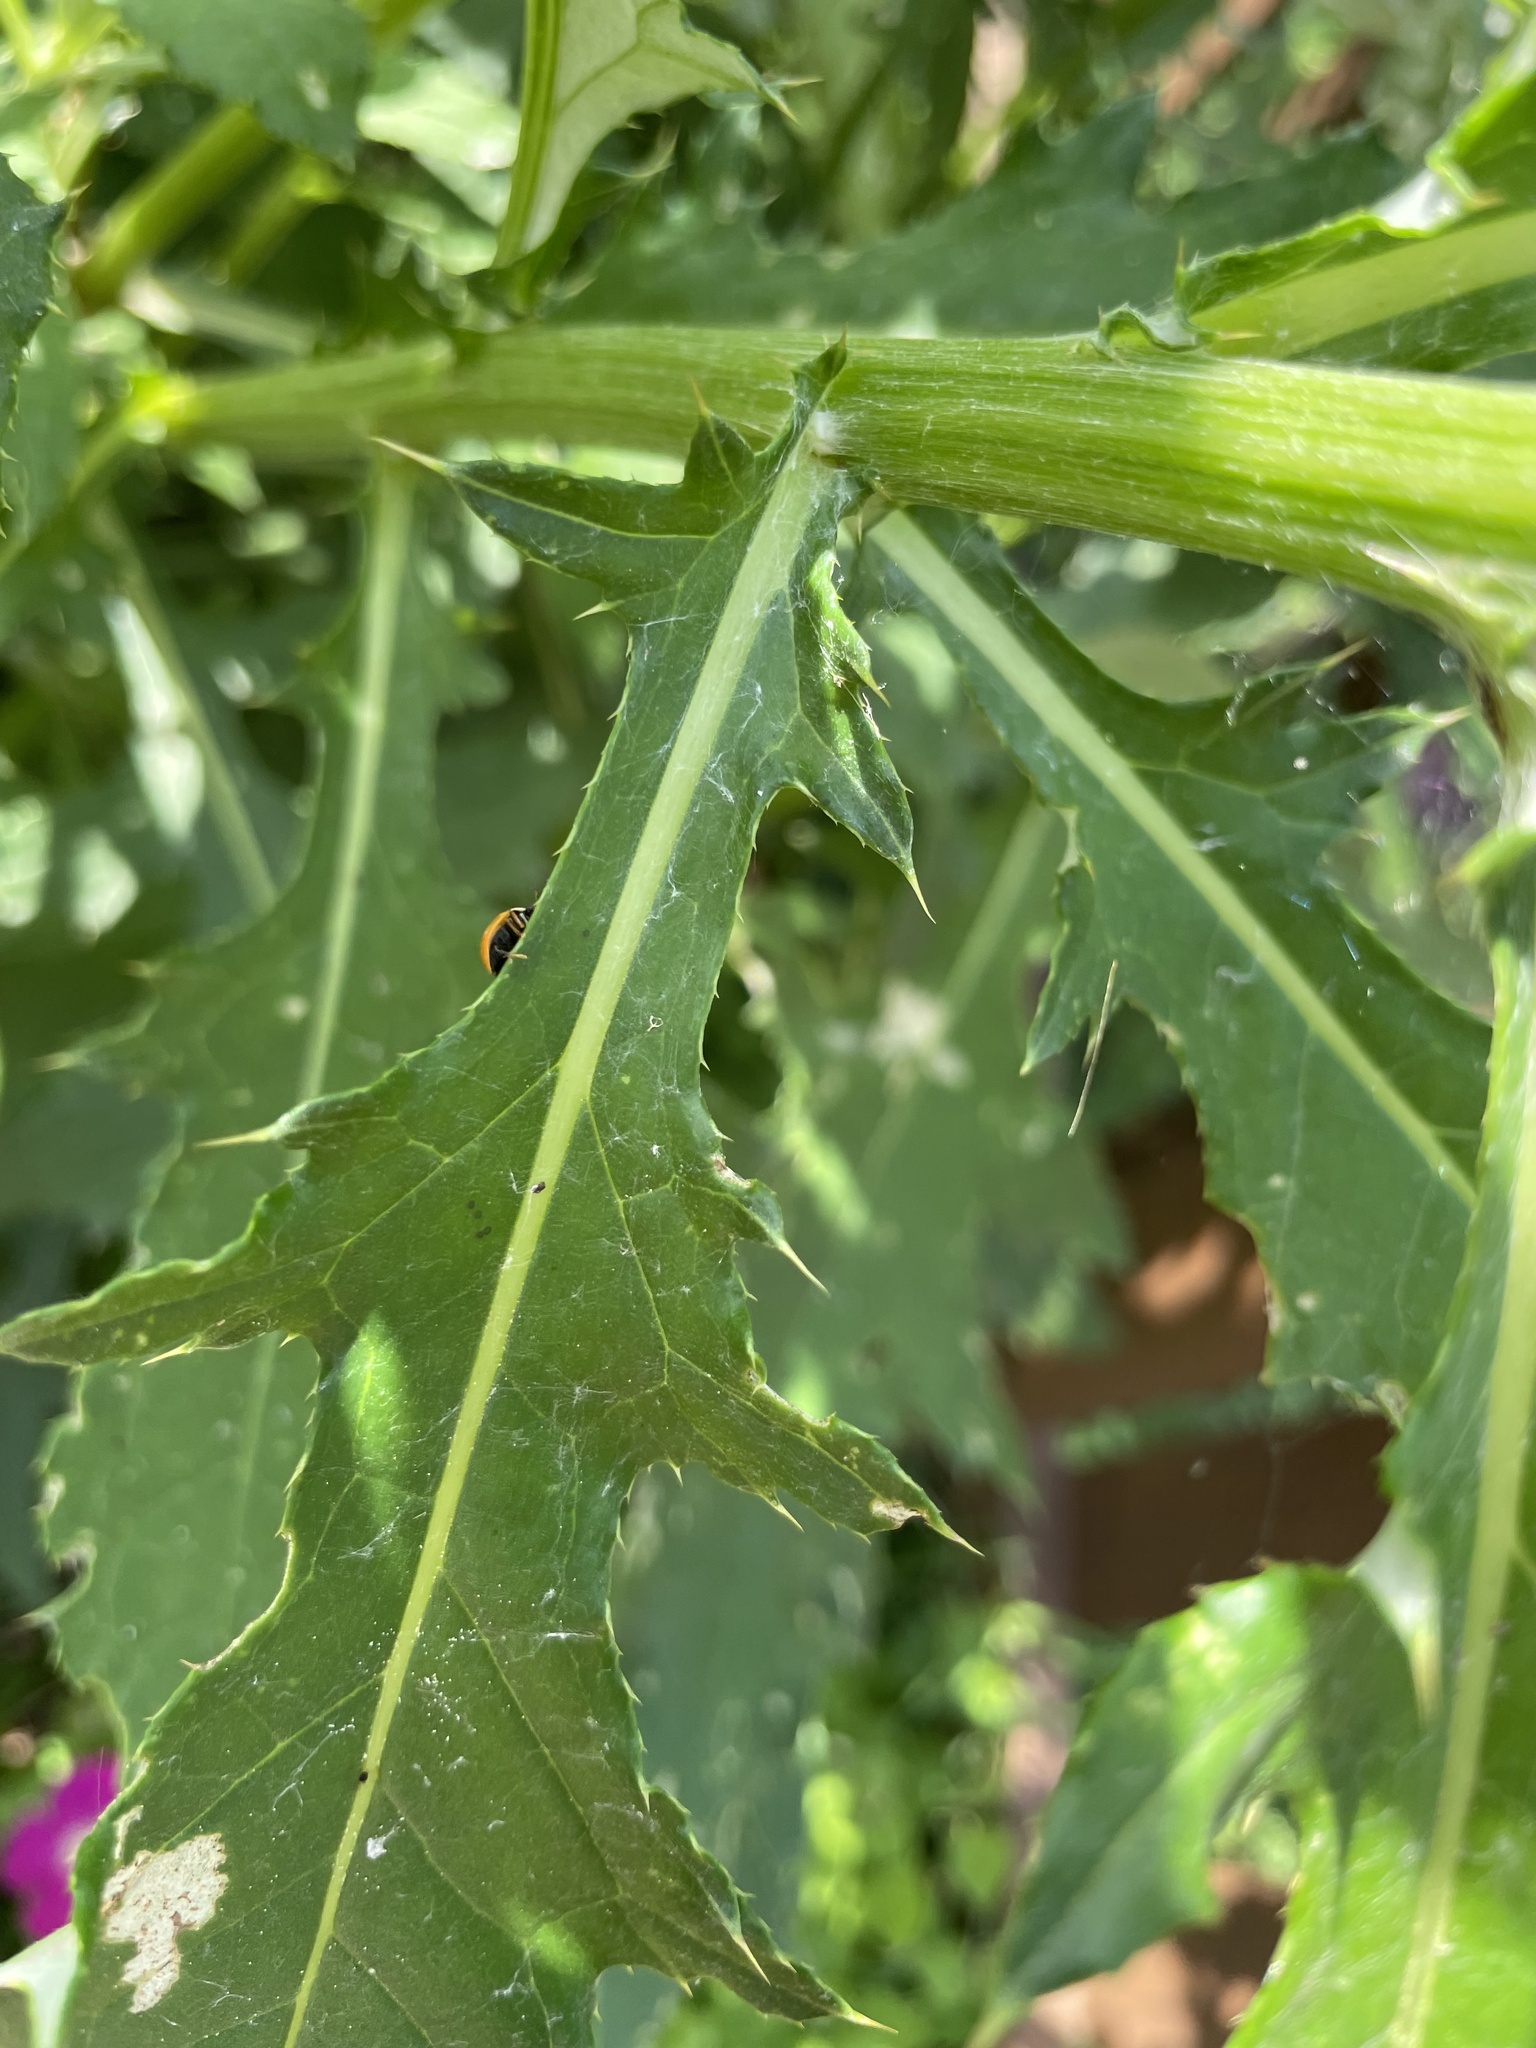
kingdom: Animalia
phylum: Arthropoda
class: Insecta
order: Coleoptera
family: Coccinellidae
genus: Cycloneda
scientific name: Cycloneda munda
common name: Polished lady beetle
